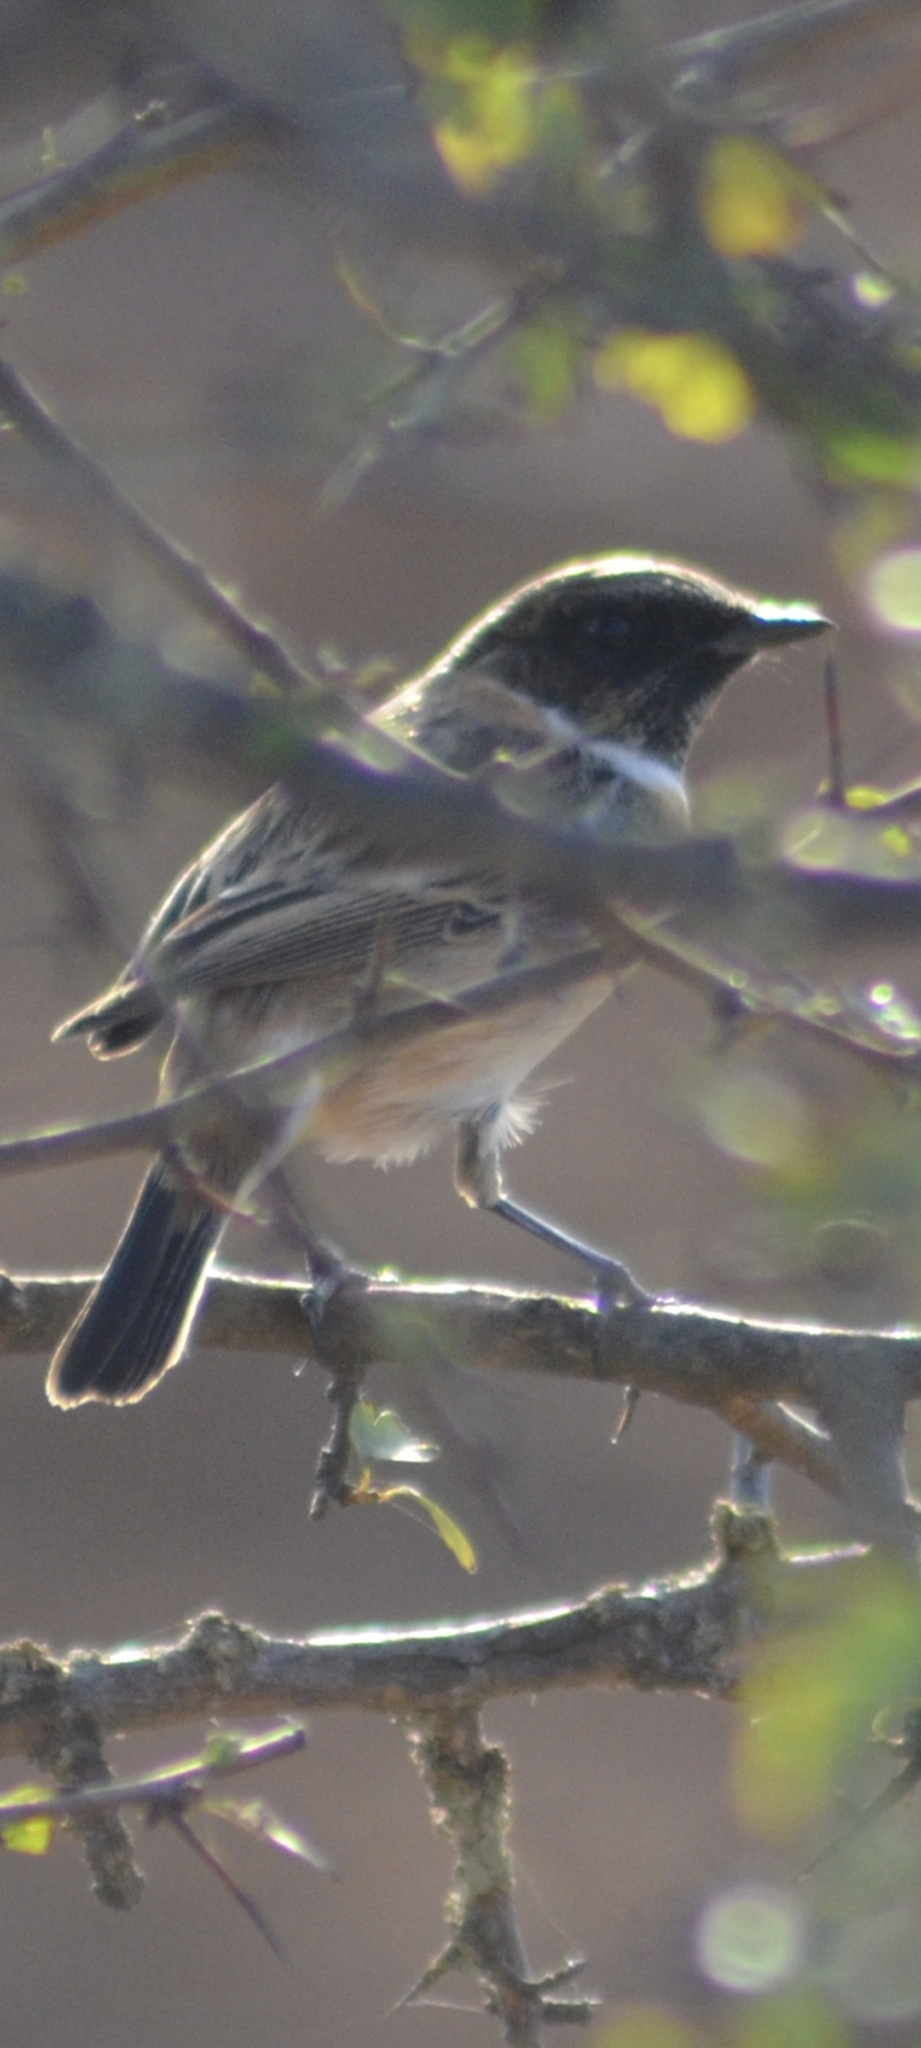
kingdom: Animalia
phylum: Chordata
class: Aves
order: Passeriformes
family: Muscicapidae
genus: Saxicola
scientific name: Saxicola rubicola
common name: European stonechat
